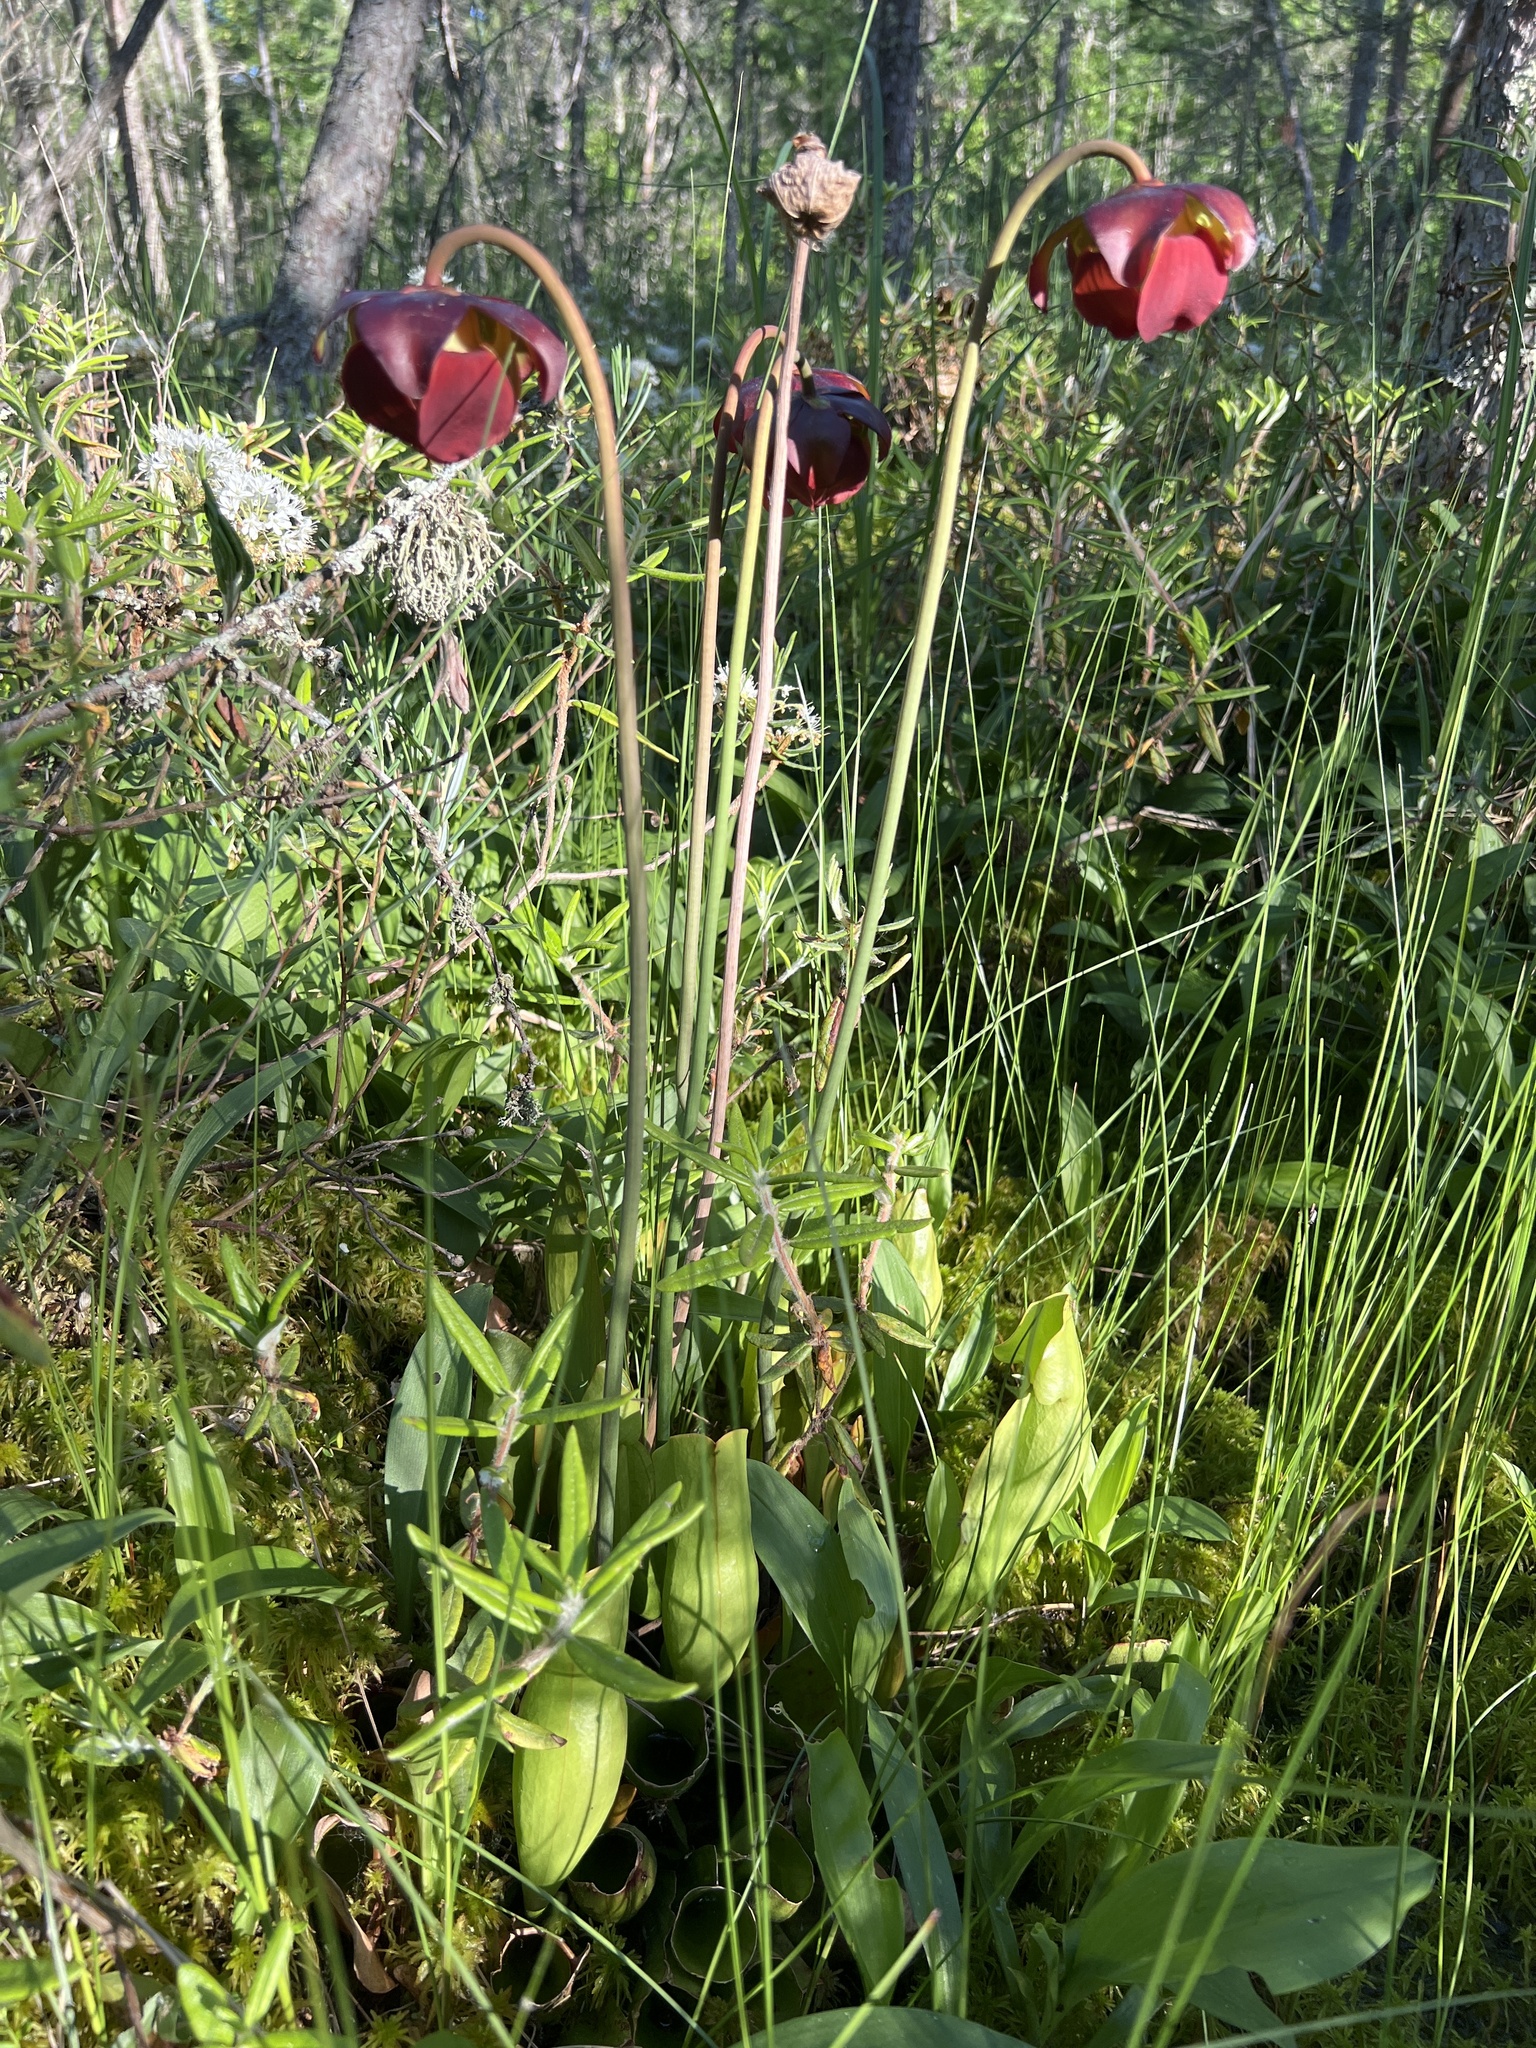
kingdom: Plantae
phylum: Tracheophyta
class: Magnoliopsida
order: Ericales
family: Sarraceniaceae
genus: Sarracenia
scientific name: Sarracenia purpurea
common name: Pitcherplant
